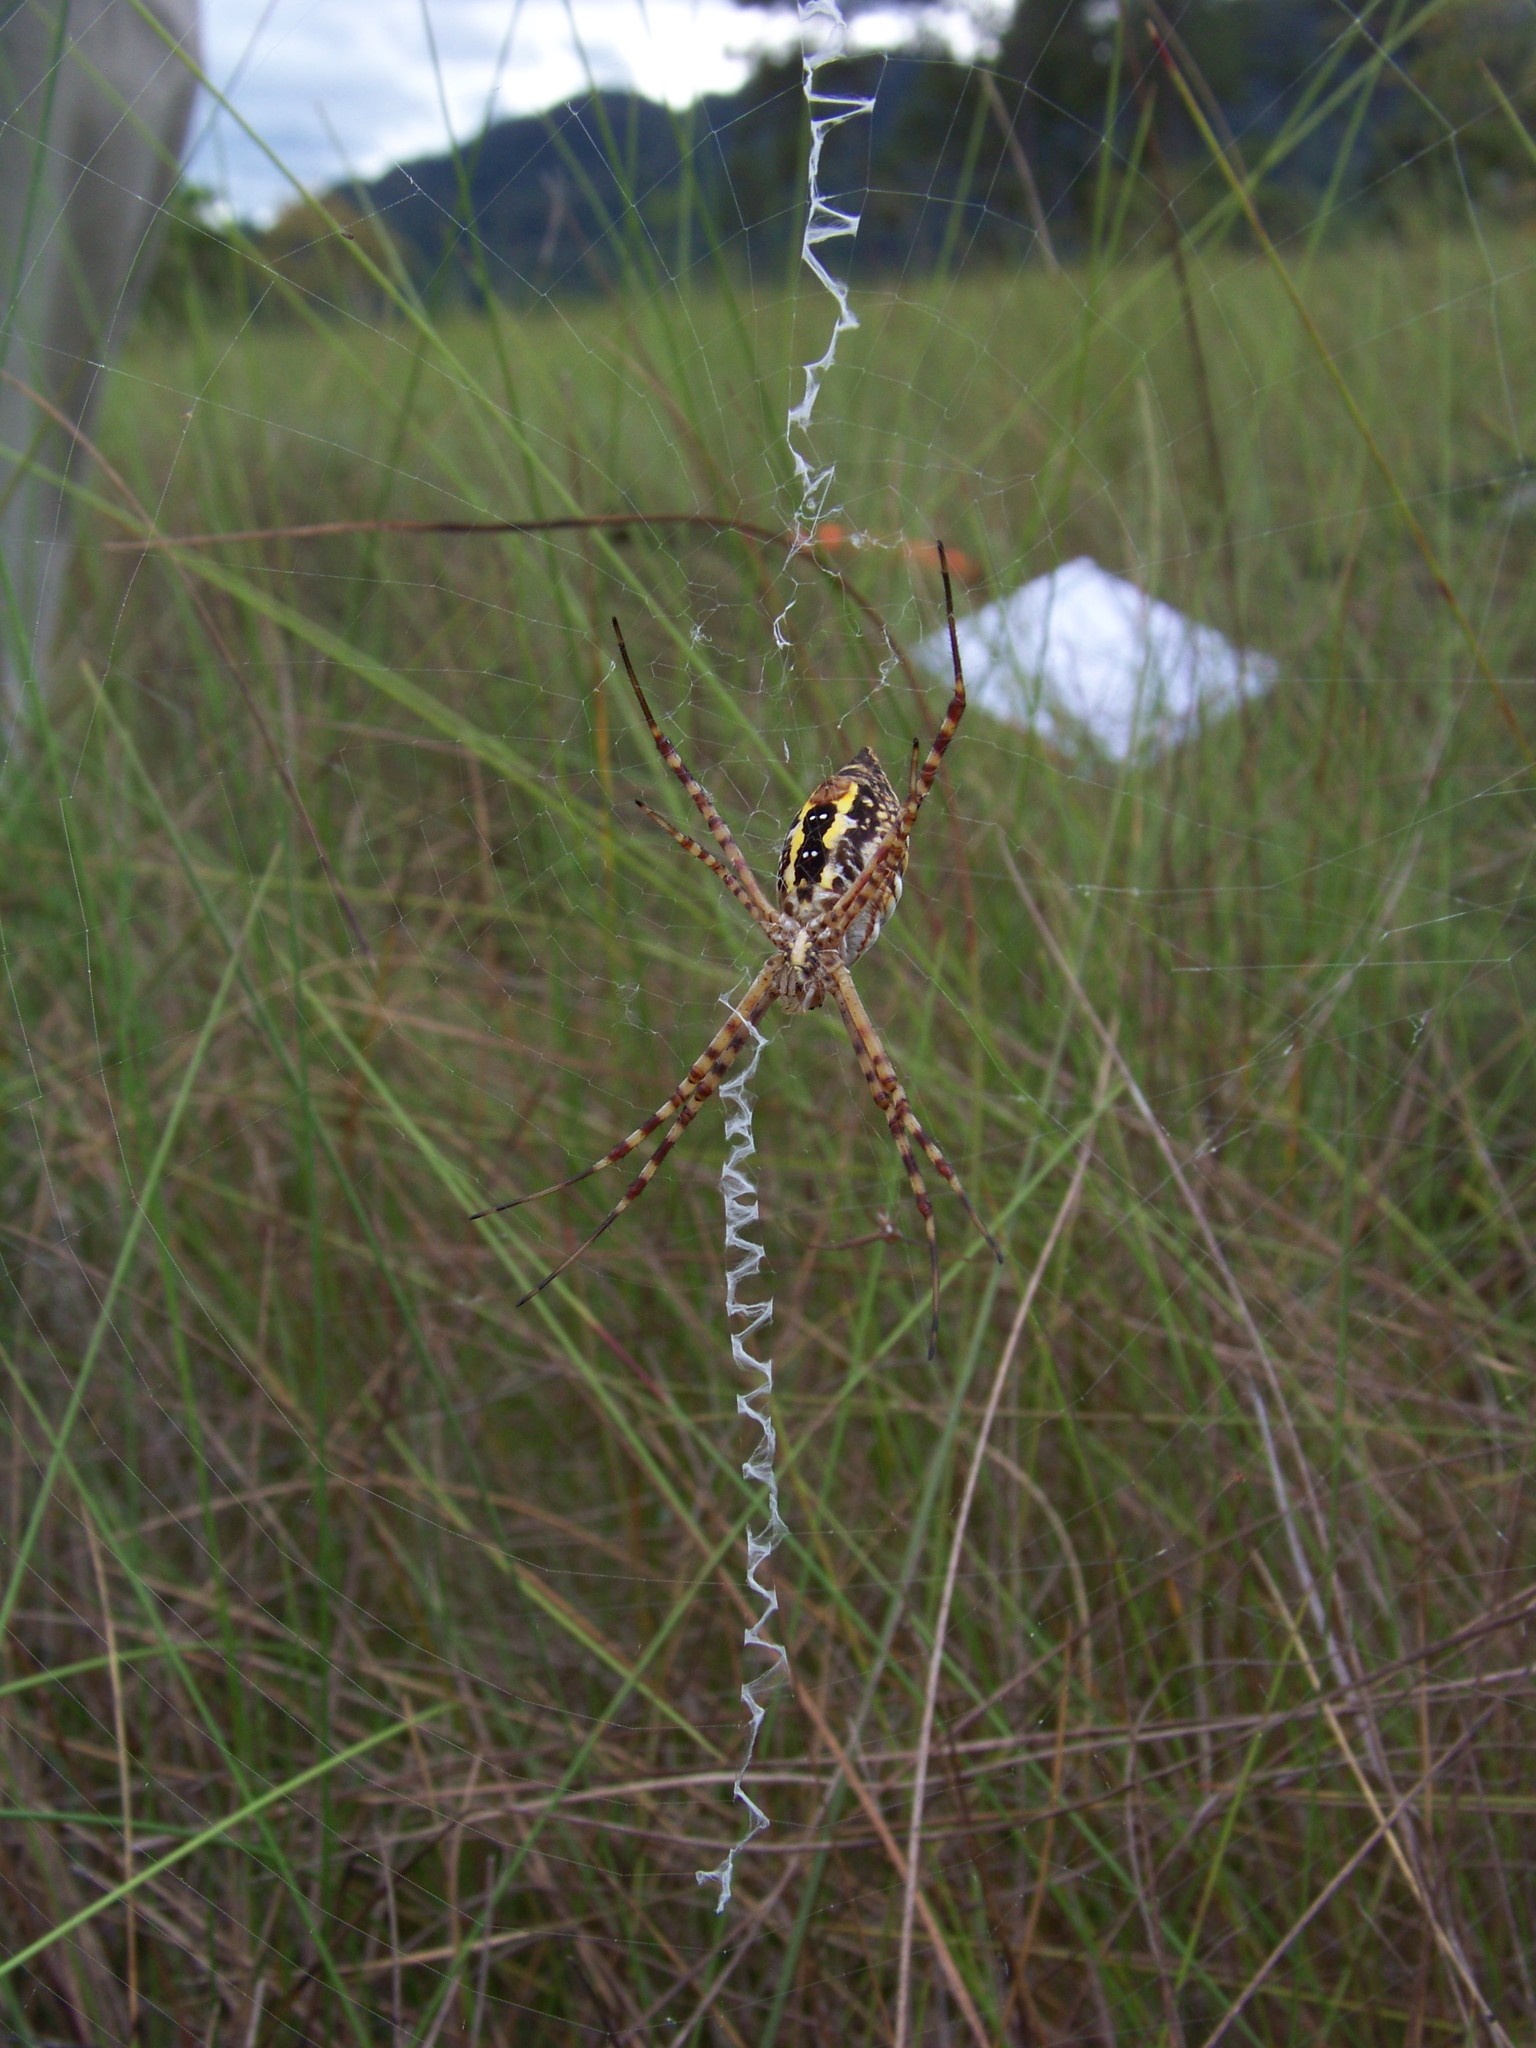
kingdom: Animalia
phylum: Arthropoda
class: Arachnida
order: Araneae
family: Araneidae
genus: Argiope
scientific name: Argiope trifasciata
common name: Banded garden spider
